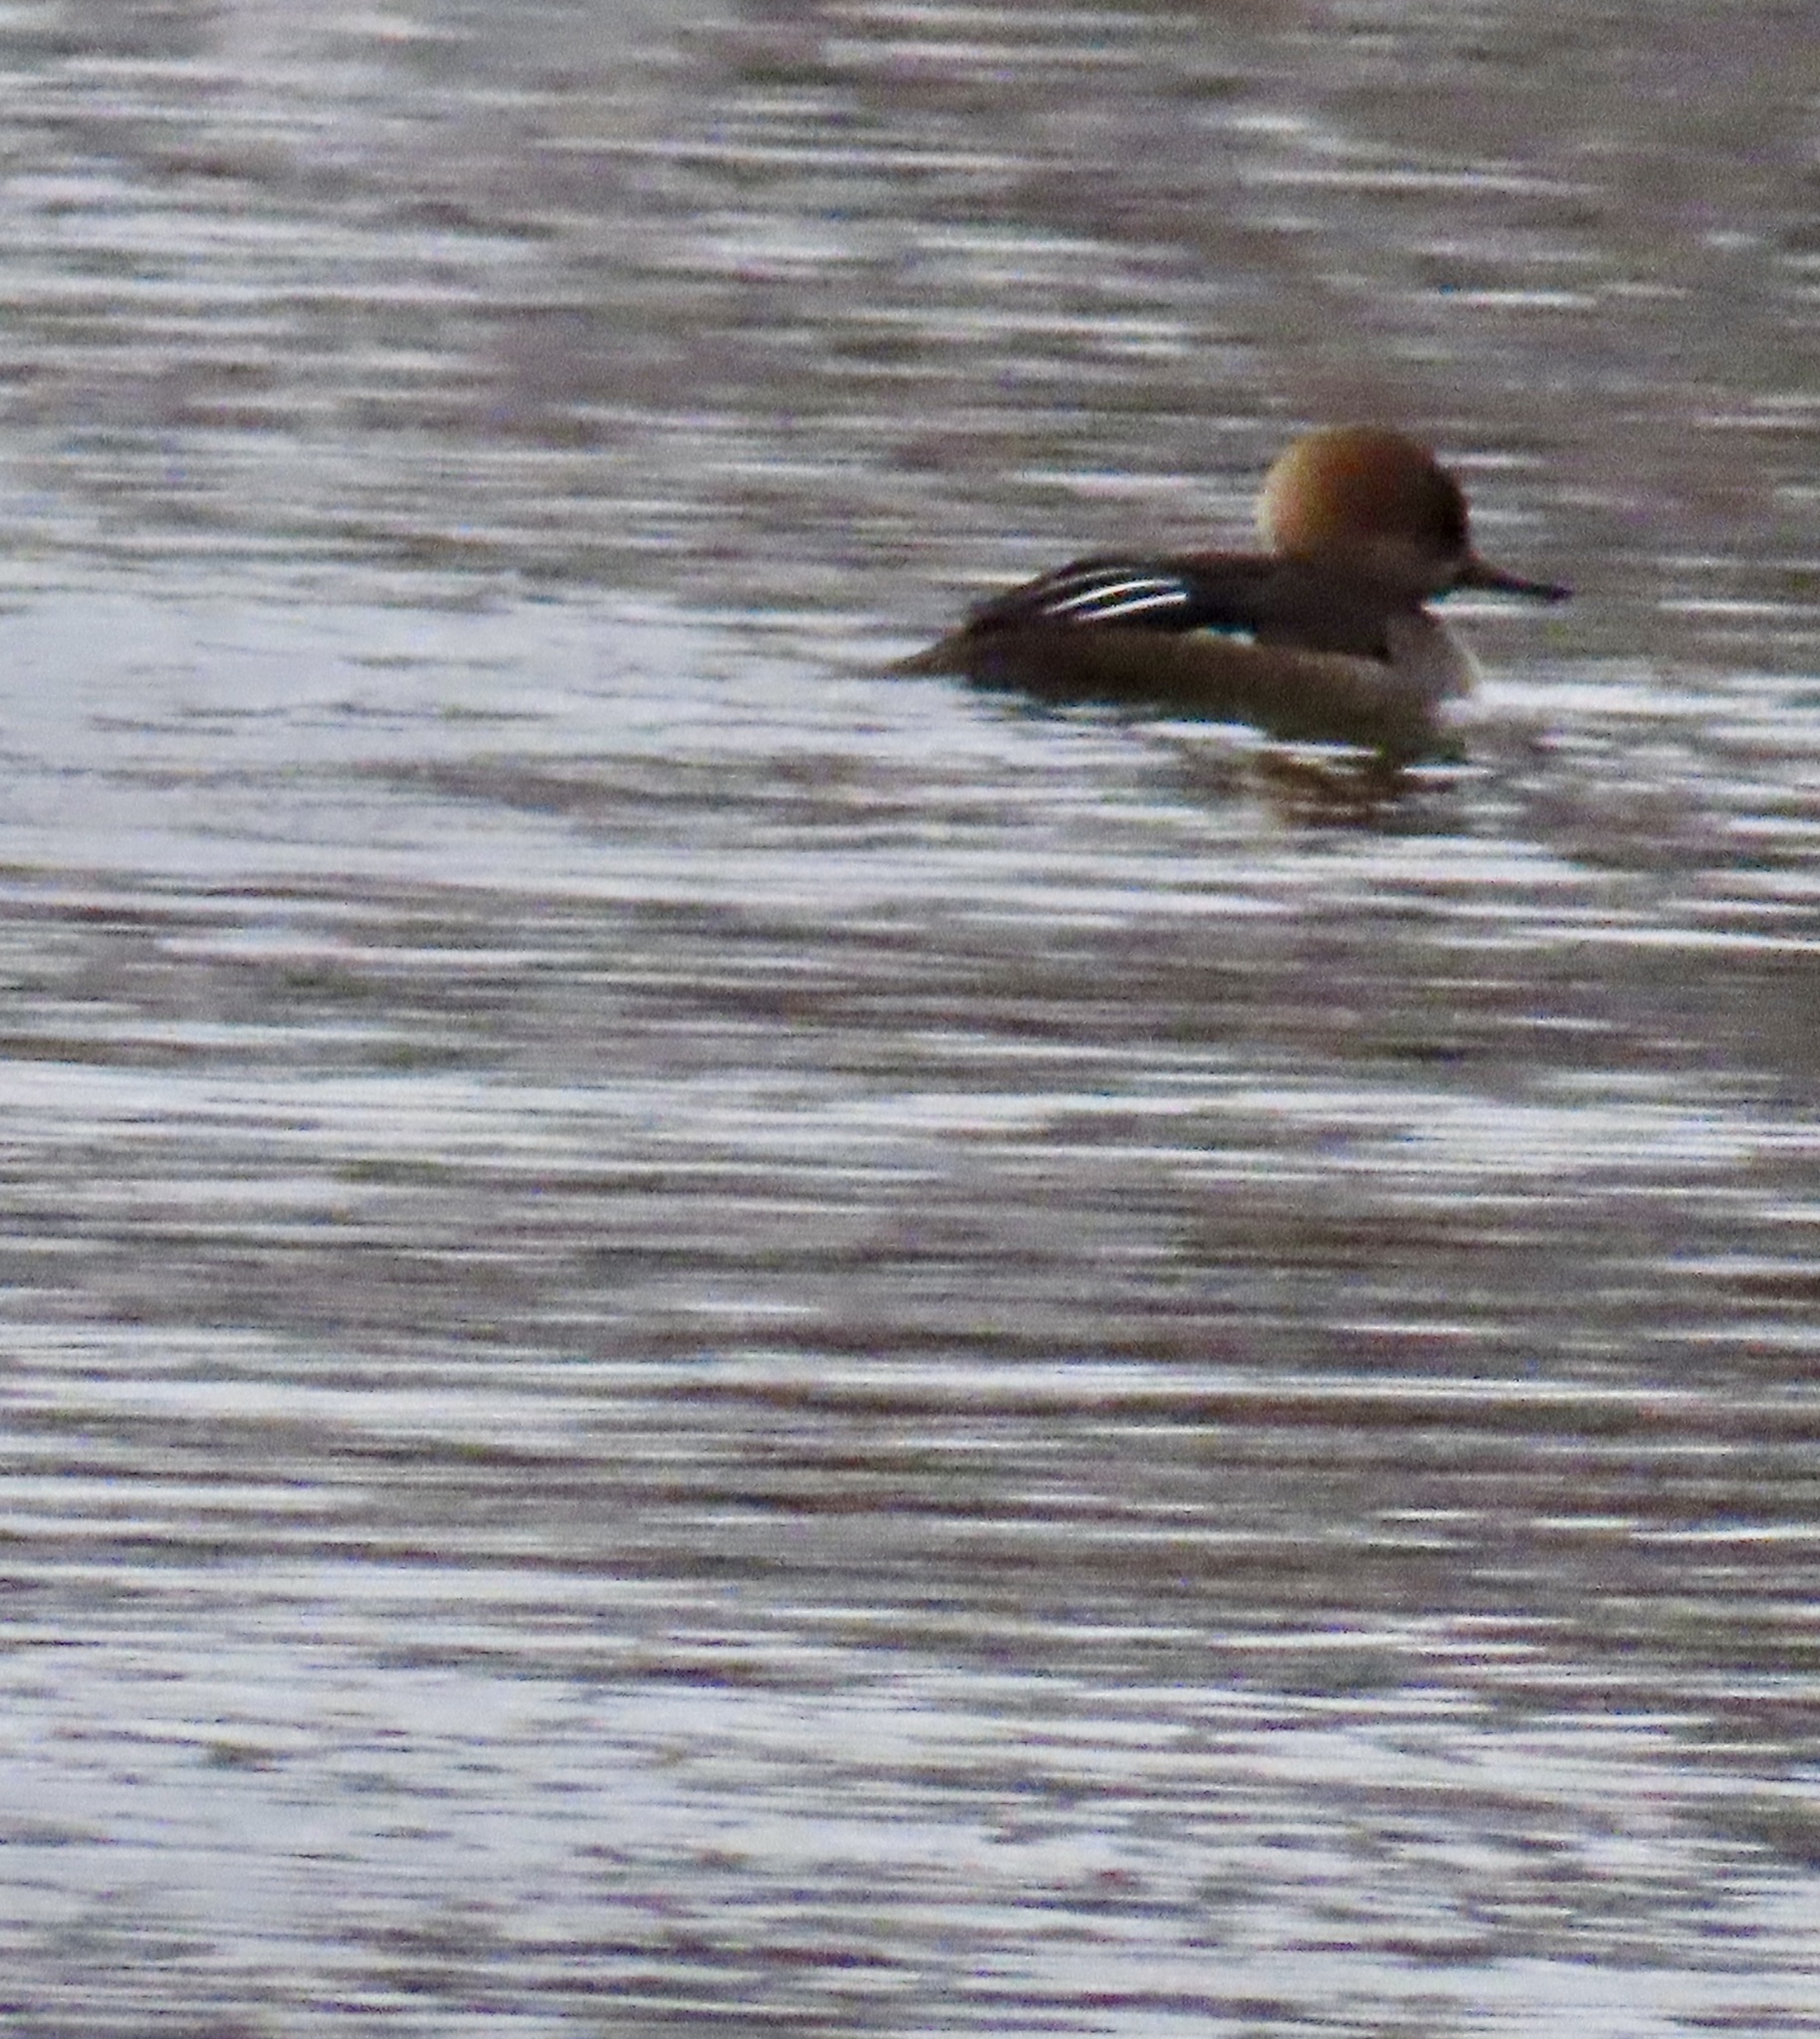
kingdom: Animalia
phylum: Chordata
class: Aves
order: Anseriformes
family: Anatidae
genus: Lophodytes
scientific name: Lophodytes cucullatus
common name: Hooded merganser
